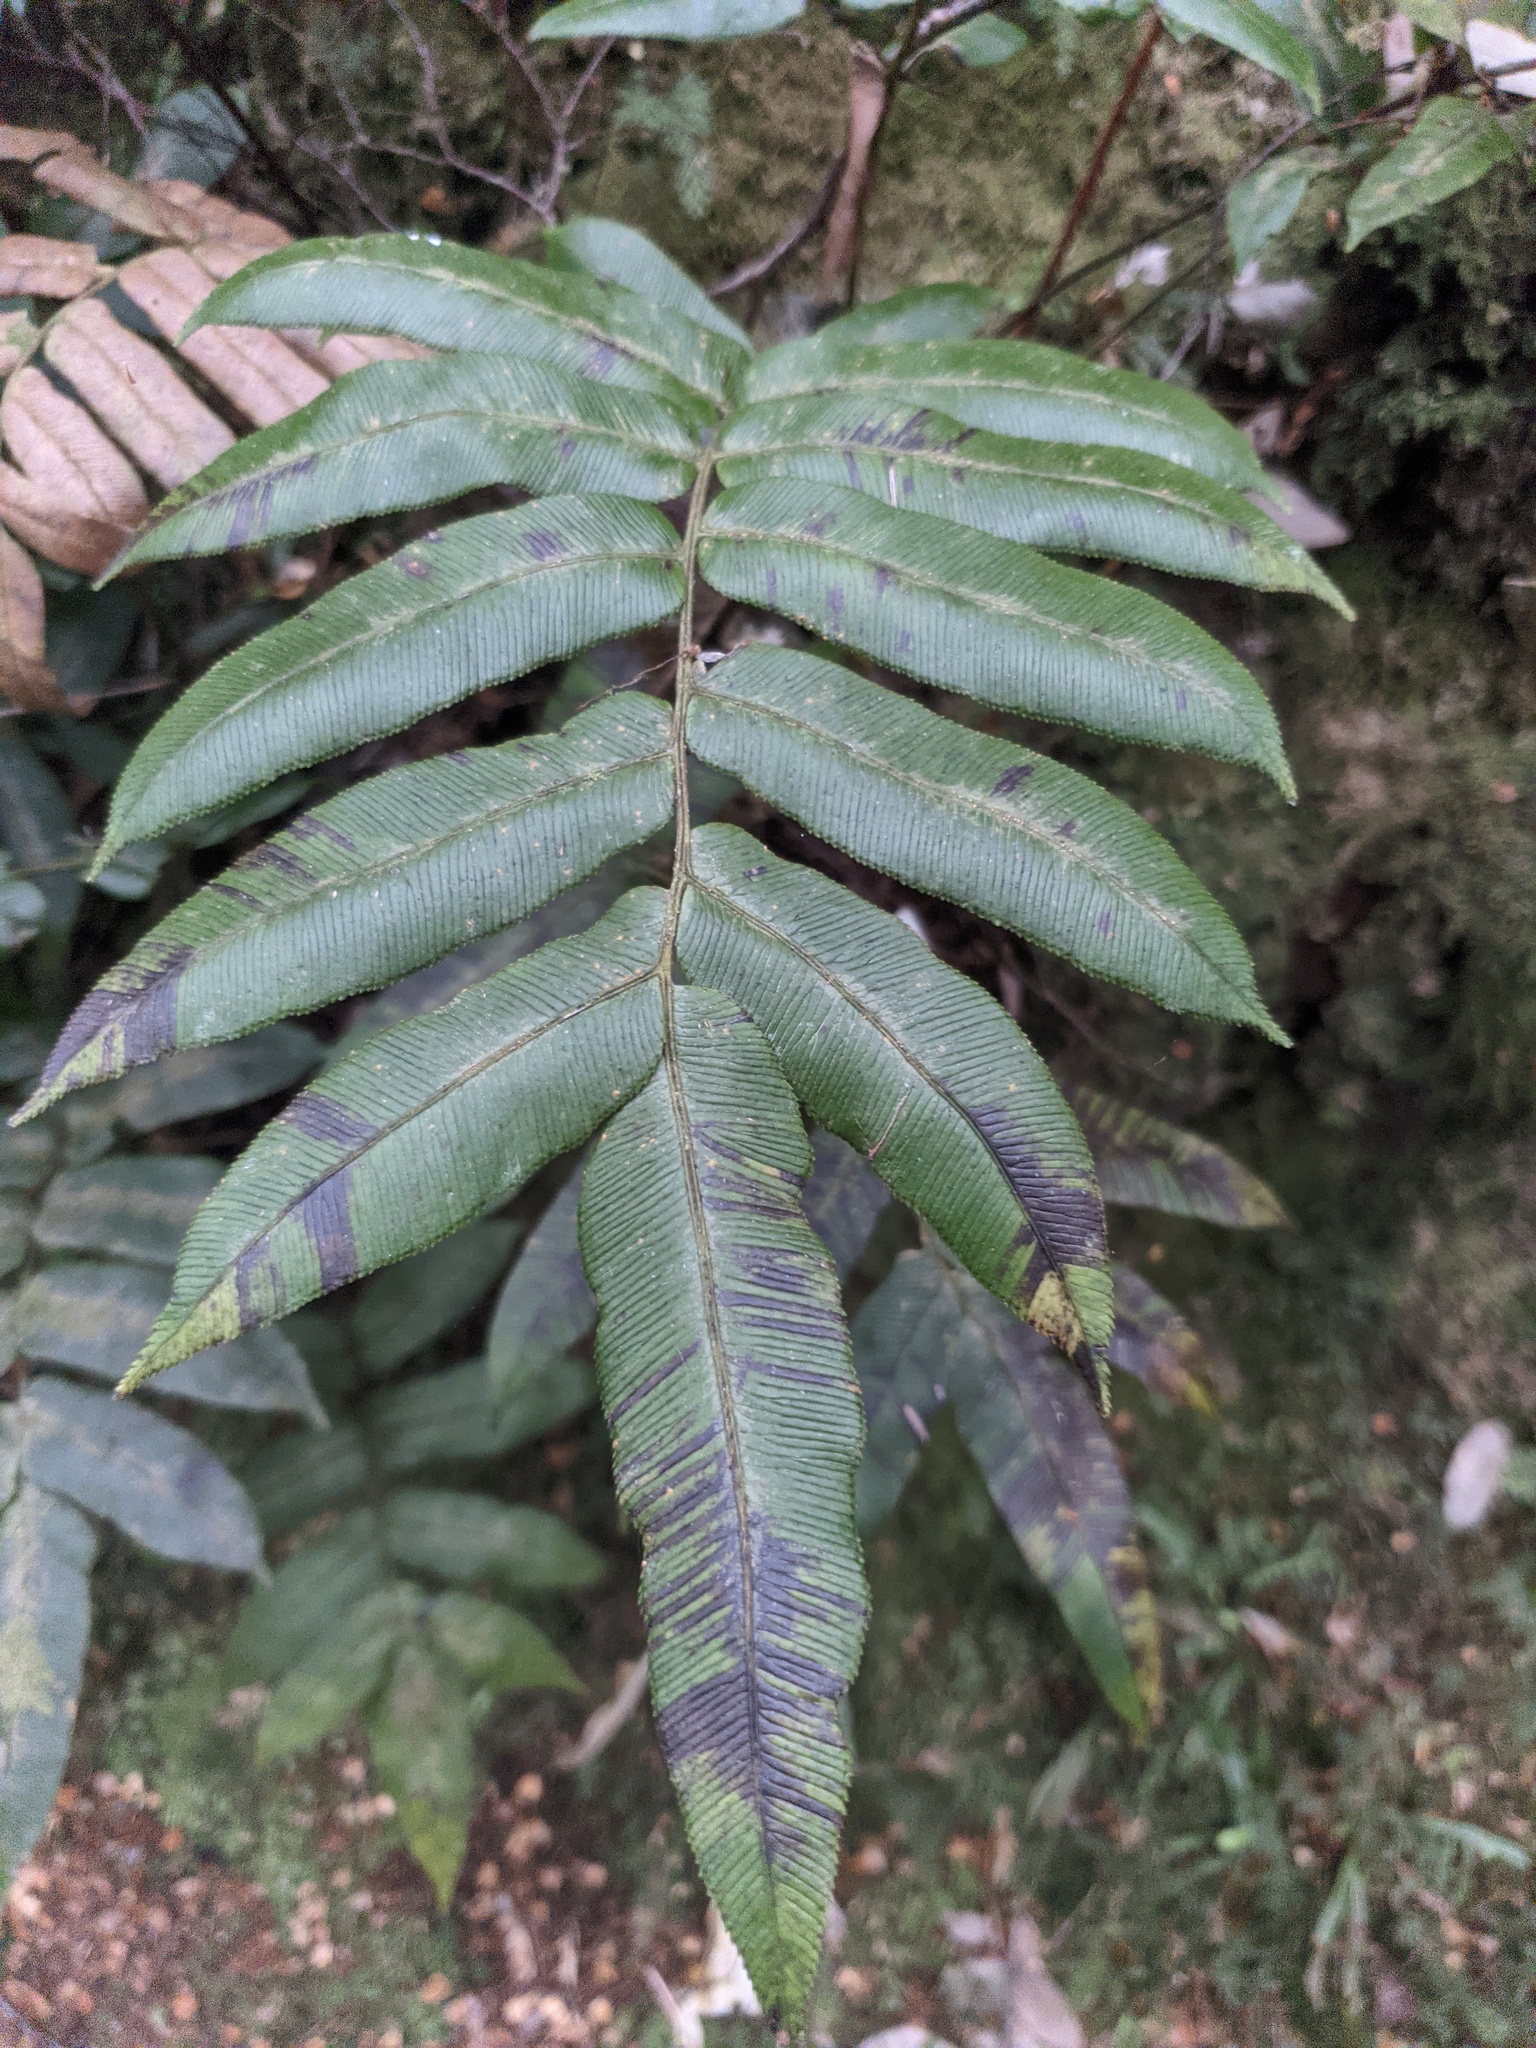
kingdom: Plantae
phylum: Tracheophyta
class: Polypodiopsida
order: Polypodiales
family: Blechnaceae
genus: Parablechnum
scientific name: Parablechnum wattsii
